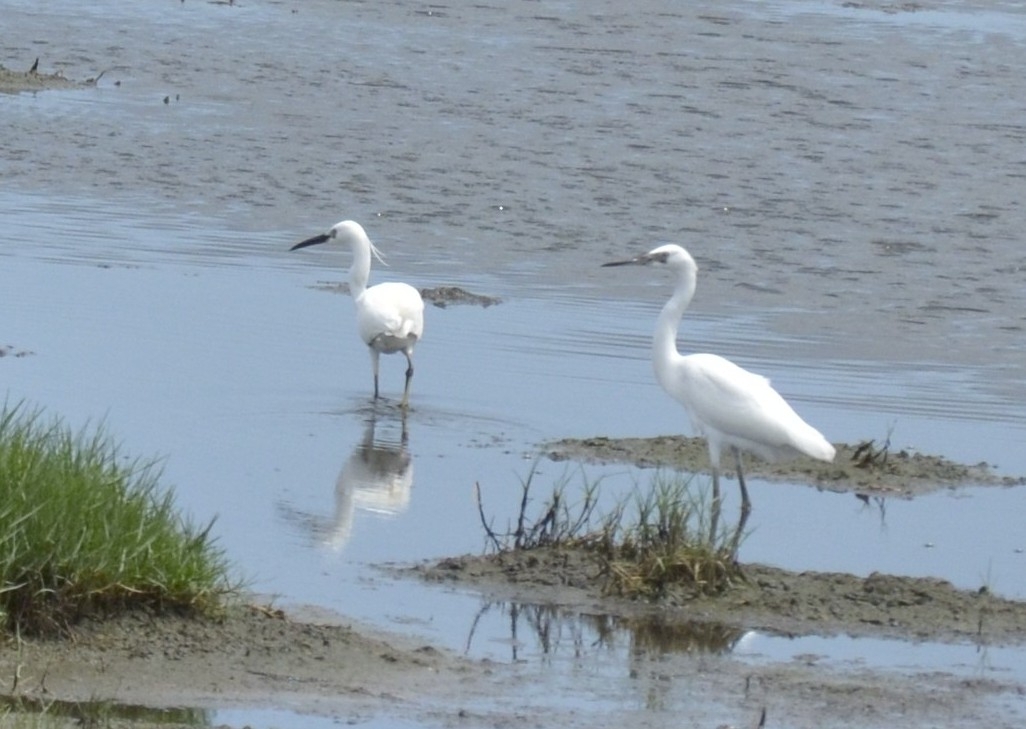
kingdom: Animalia
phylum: Chordata
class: Aves
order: Pelecaniformes
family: Ardeidae
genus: Egretta
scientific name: Egretta garzetta
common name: Little egret
